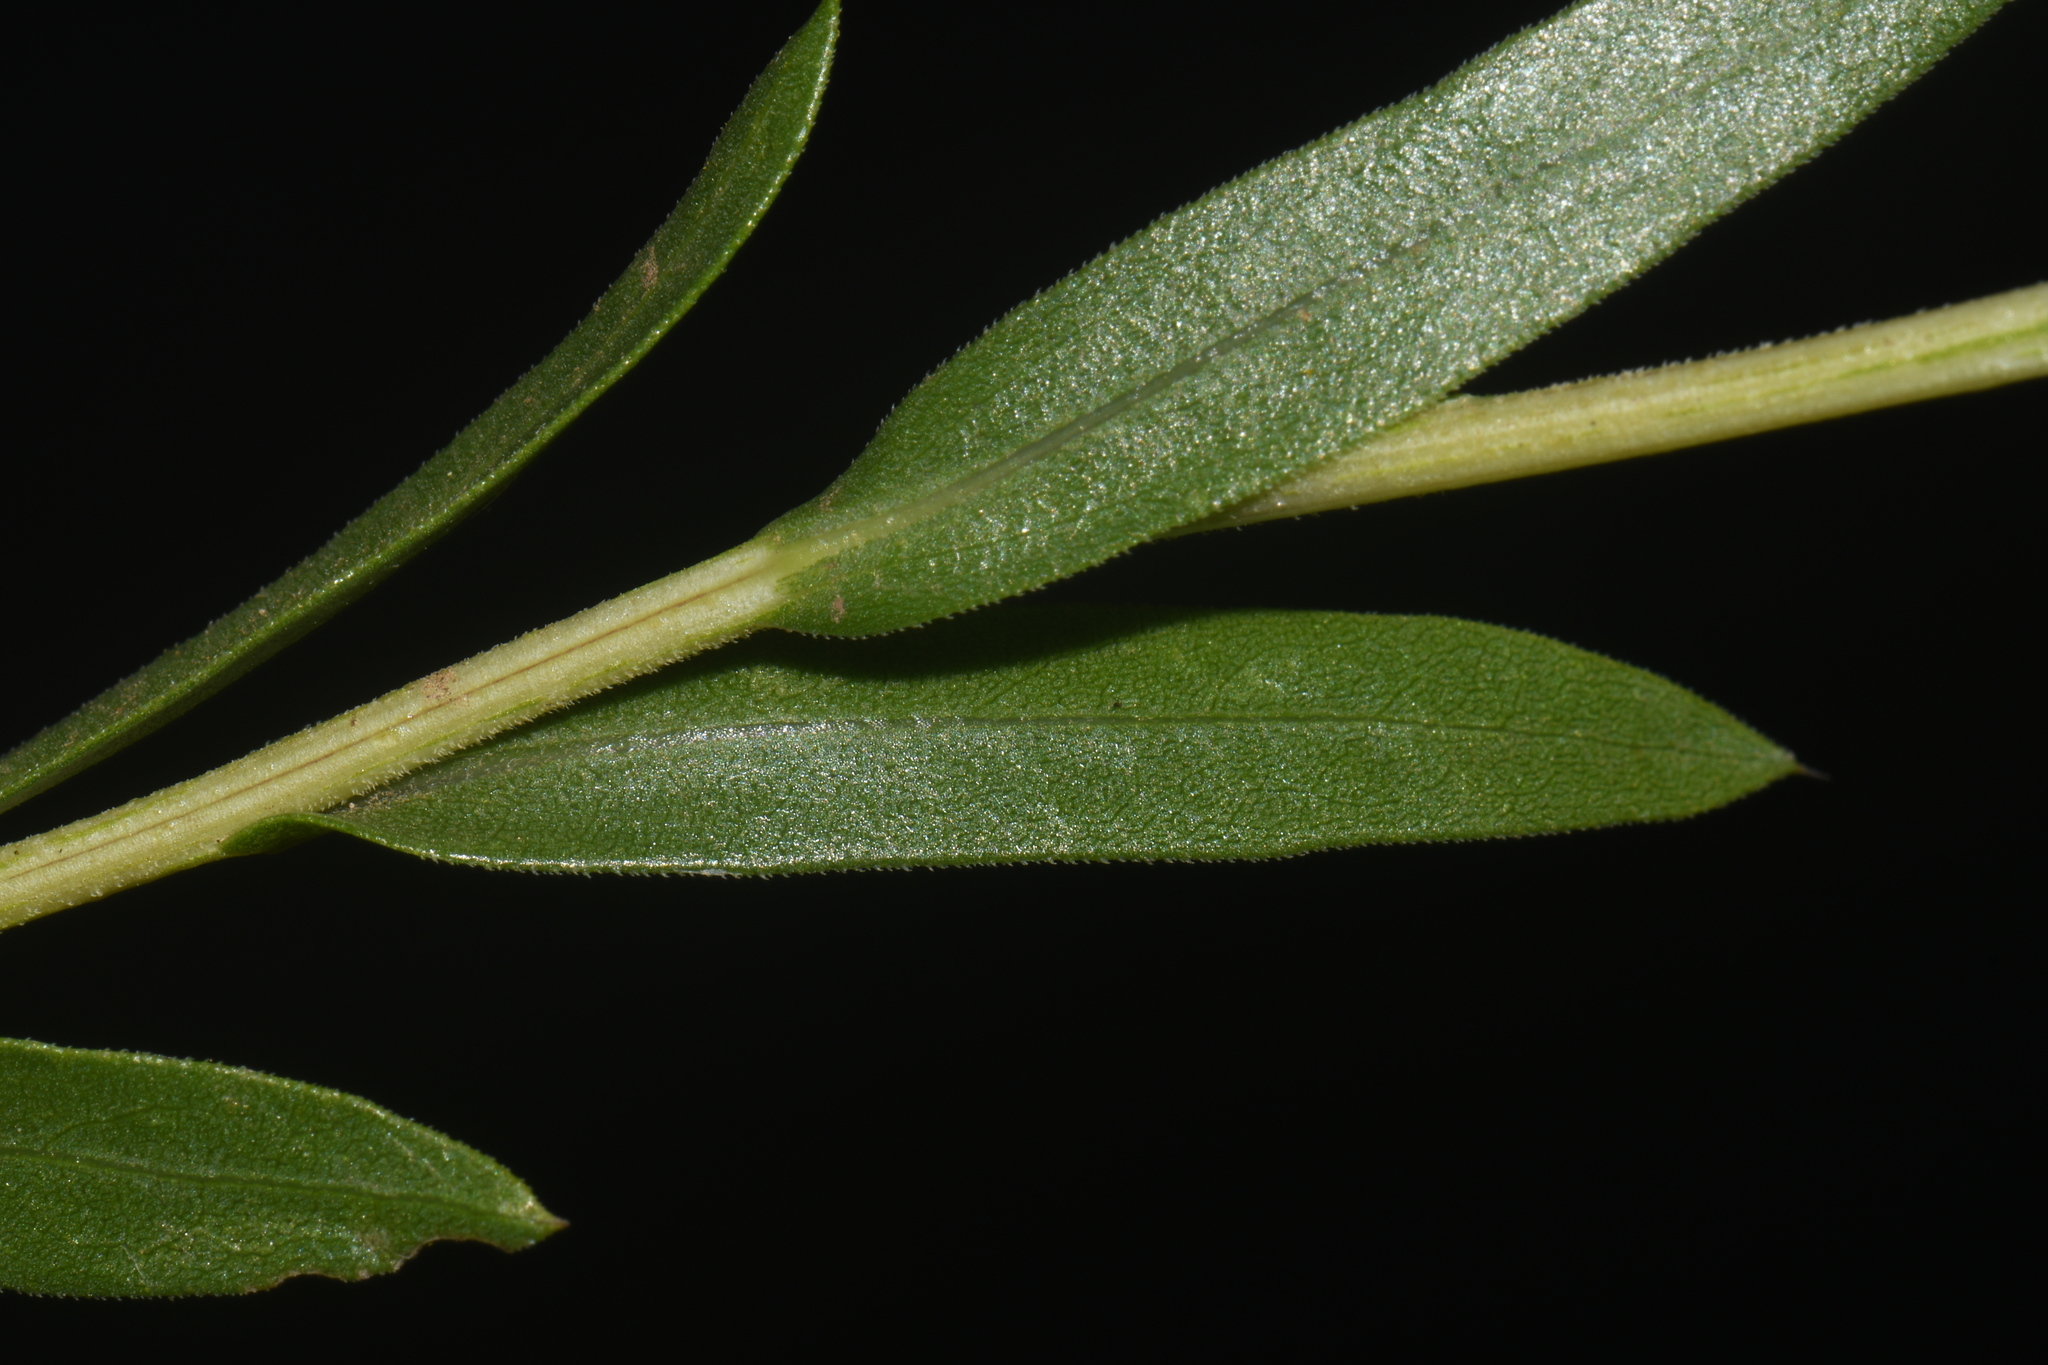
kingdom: Plantae
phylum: Tracheophyta
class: Magnoliopsida
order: Asterales
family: Asteraceae
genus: Xanthisma
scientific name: Xanthisma texanum
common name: Texas sleepy daisy
